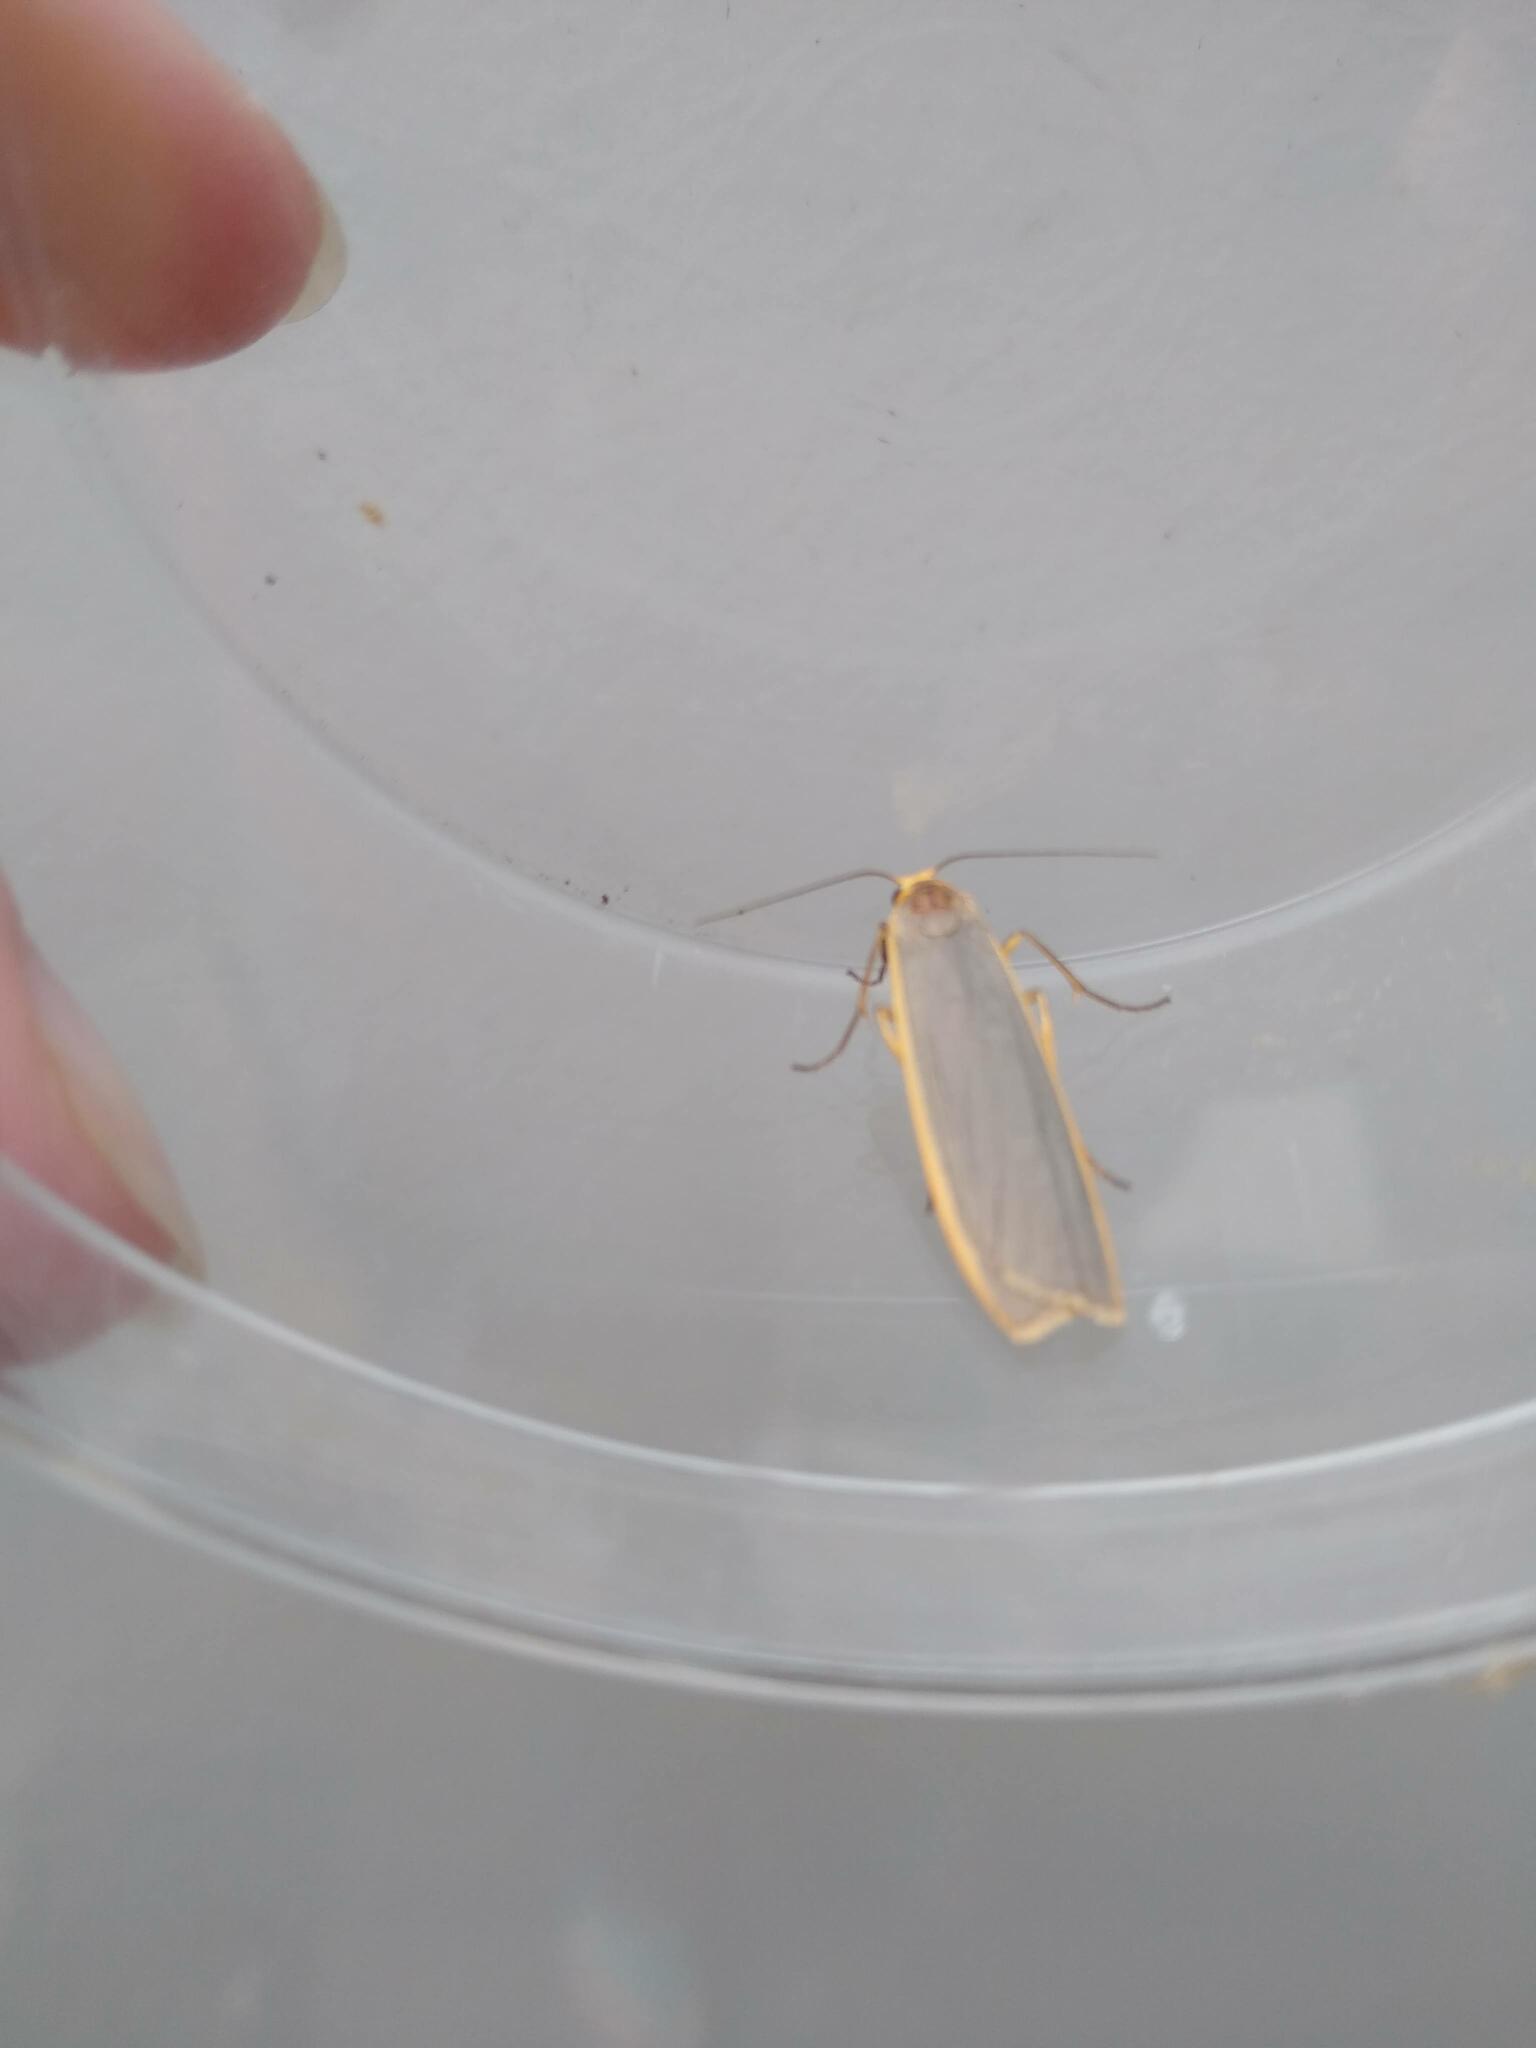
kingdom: Animalia
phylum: Arthropoda
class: Insecta
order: Lepidoptera
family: Erebidae
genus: Collita
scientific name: Collita griseola
